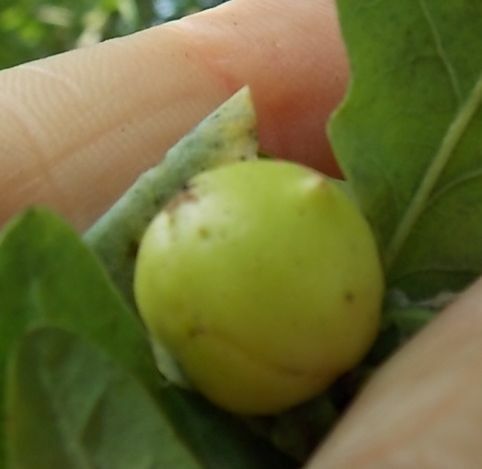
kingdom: Animalia
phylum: Arthropoda
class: Insecta
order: Hymenoptera
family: Cynipidae
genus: Andricus
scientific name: Andricus kollari
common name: Marble gall
